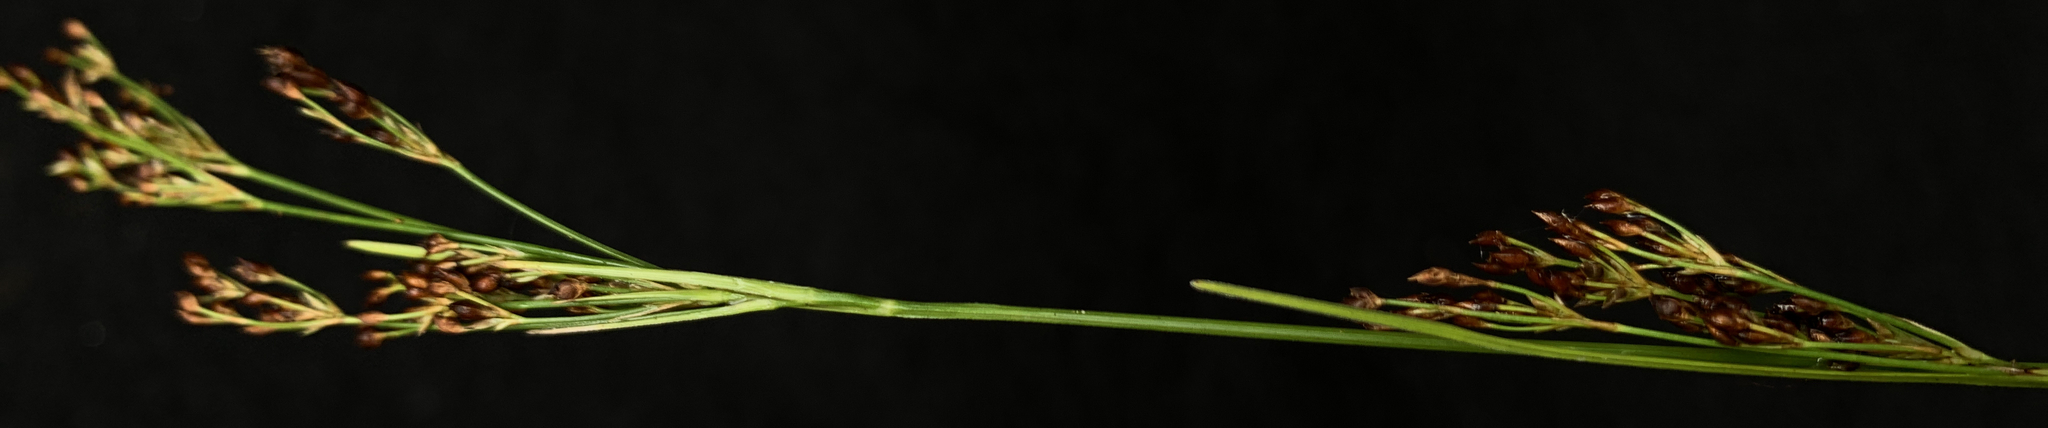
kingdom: Plantae
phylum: Tracheophyta
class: Liliopsida
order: Poales
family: Cyperaceae
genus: Rhynchospora
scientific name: Rhynchospora microcarpa
